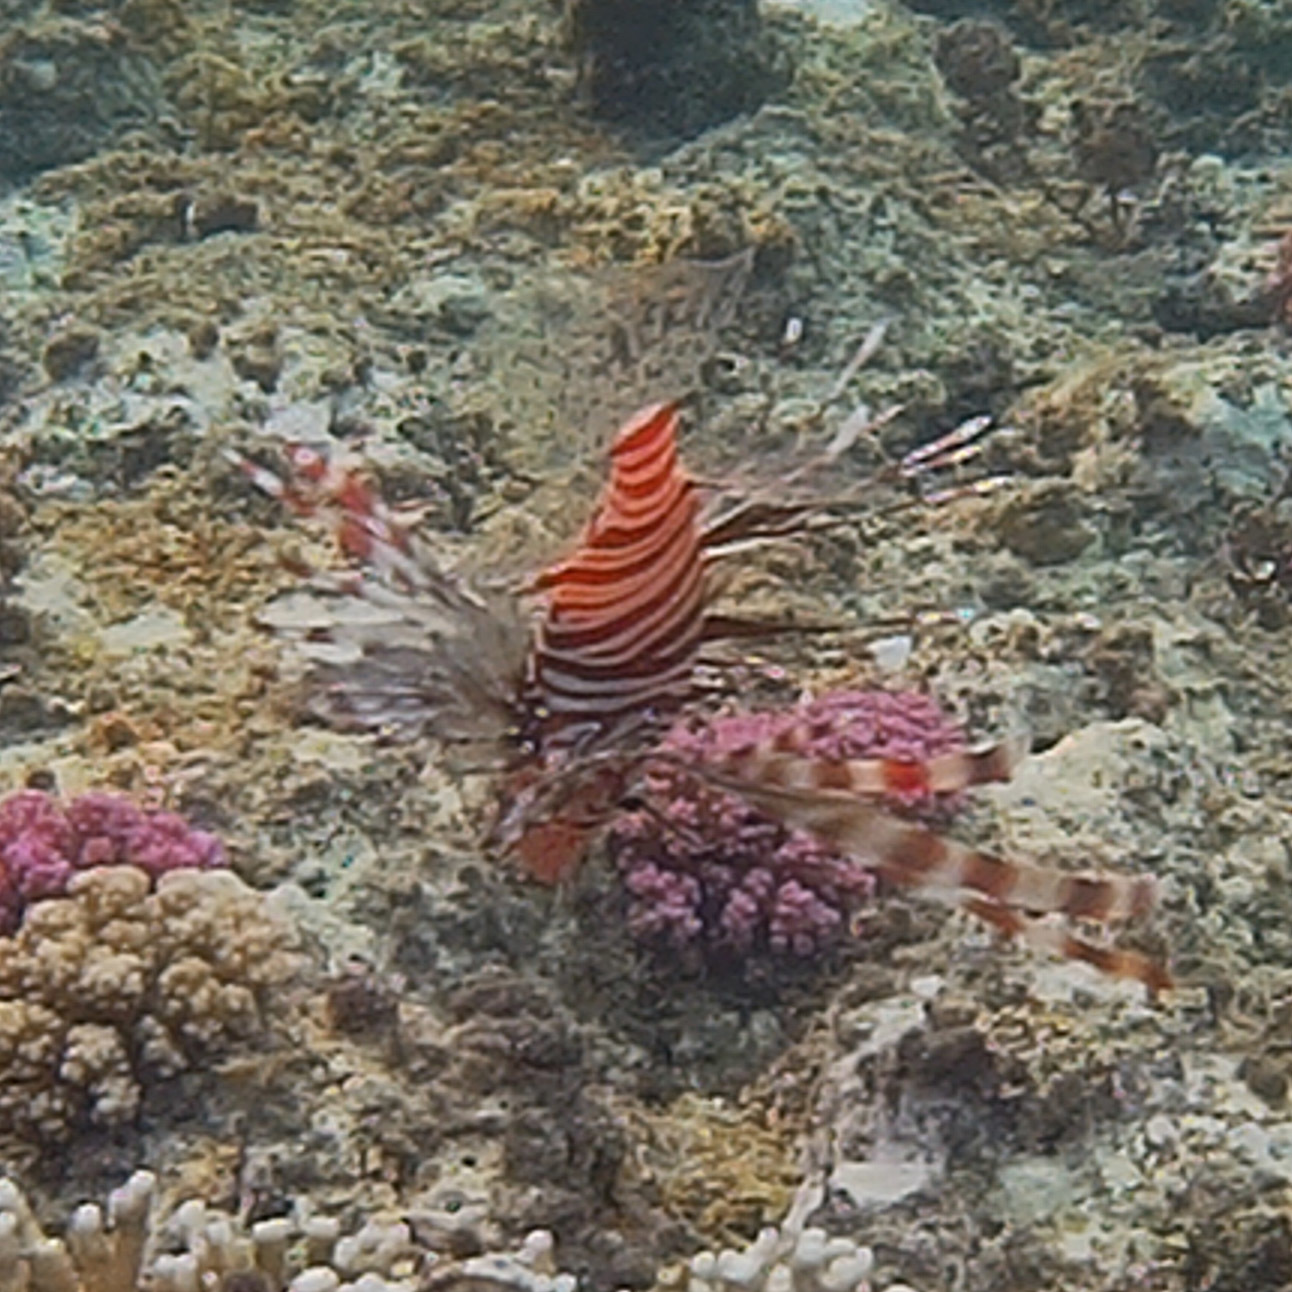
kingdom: Animalia
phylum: Chordata
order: Scorpaeniformes
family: Scorpaenidae
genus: Pterois
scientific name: Pterois miles
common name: Devil firefish
